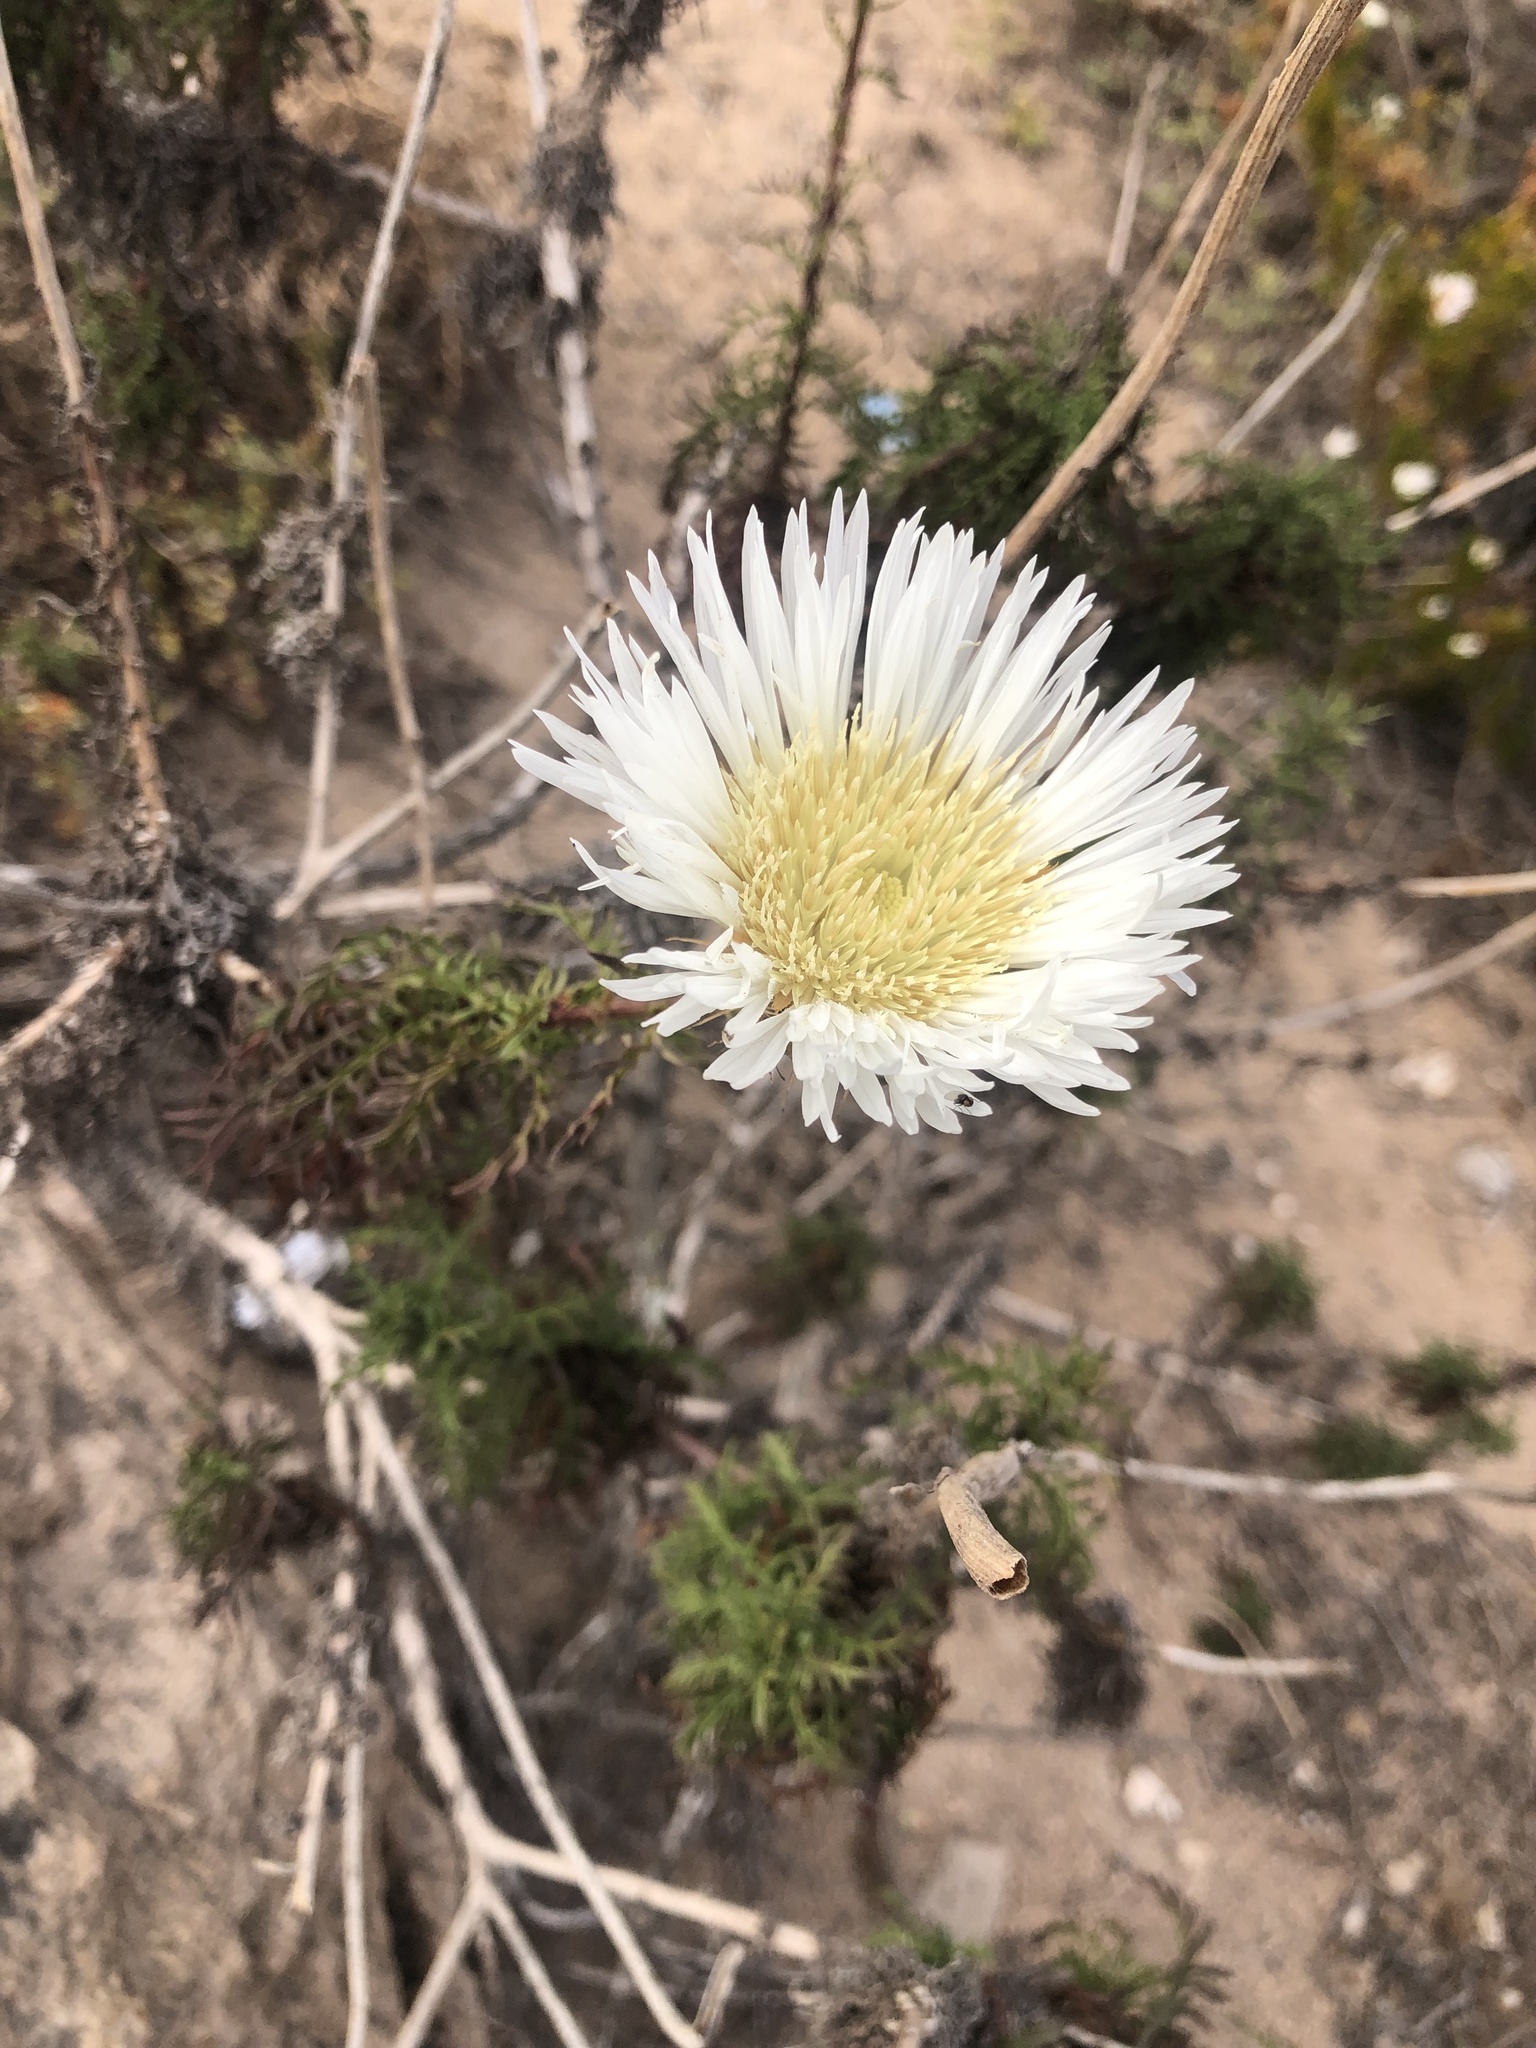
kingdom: Plantae
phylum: Tracheophyta
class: Magnoliopsida
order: Asterales
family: Asteraceae
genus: Plectocephalus
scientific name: Plectocephalus chilensis
